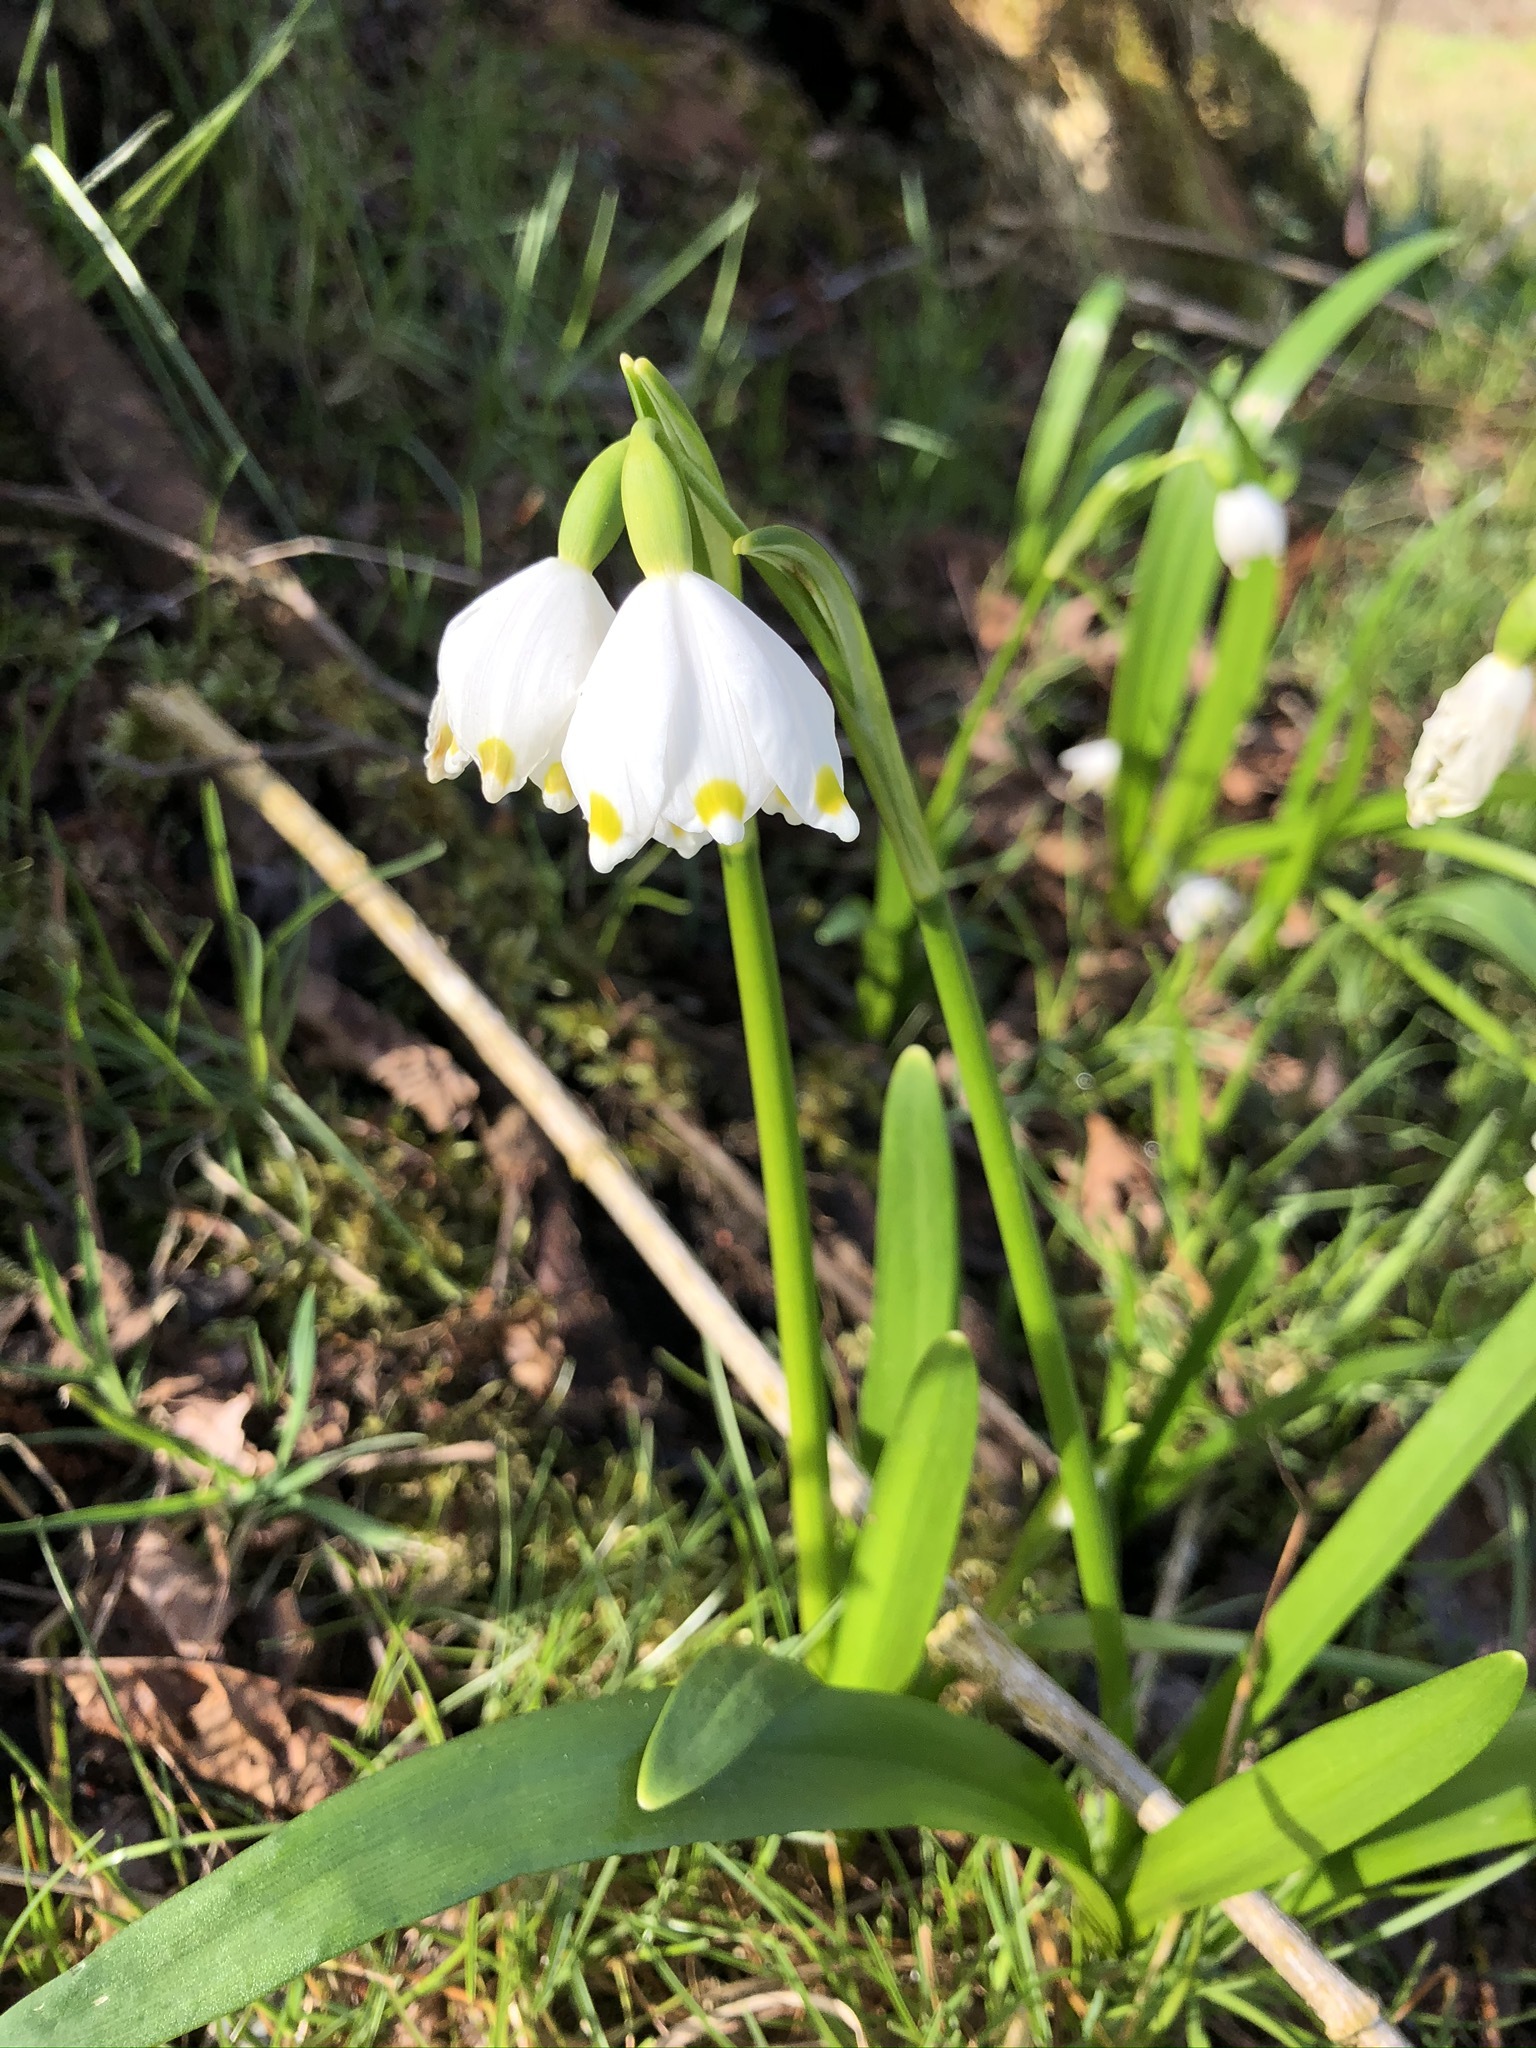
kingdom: Plantae
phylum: Tracheophyta
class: Liliopsida
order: Asparagales
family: Amaryllidaceae
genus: Leucojum
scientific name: Leucojum vernum
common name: Spring snowflake
